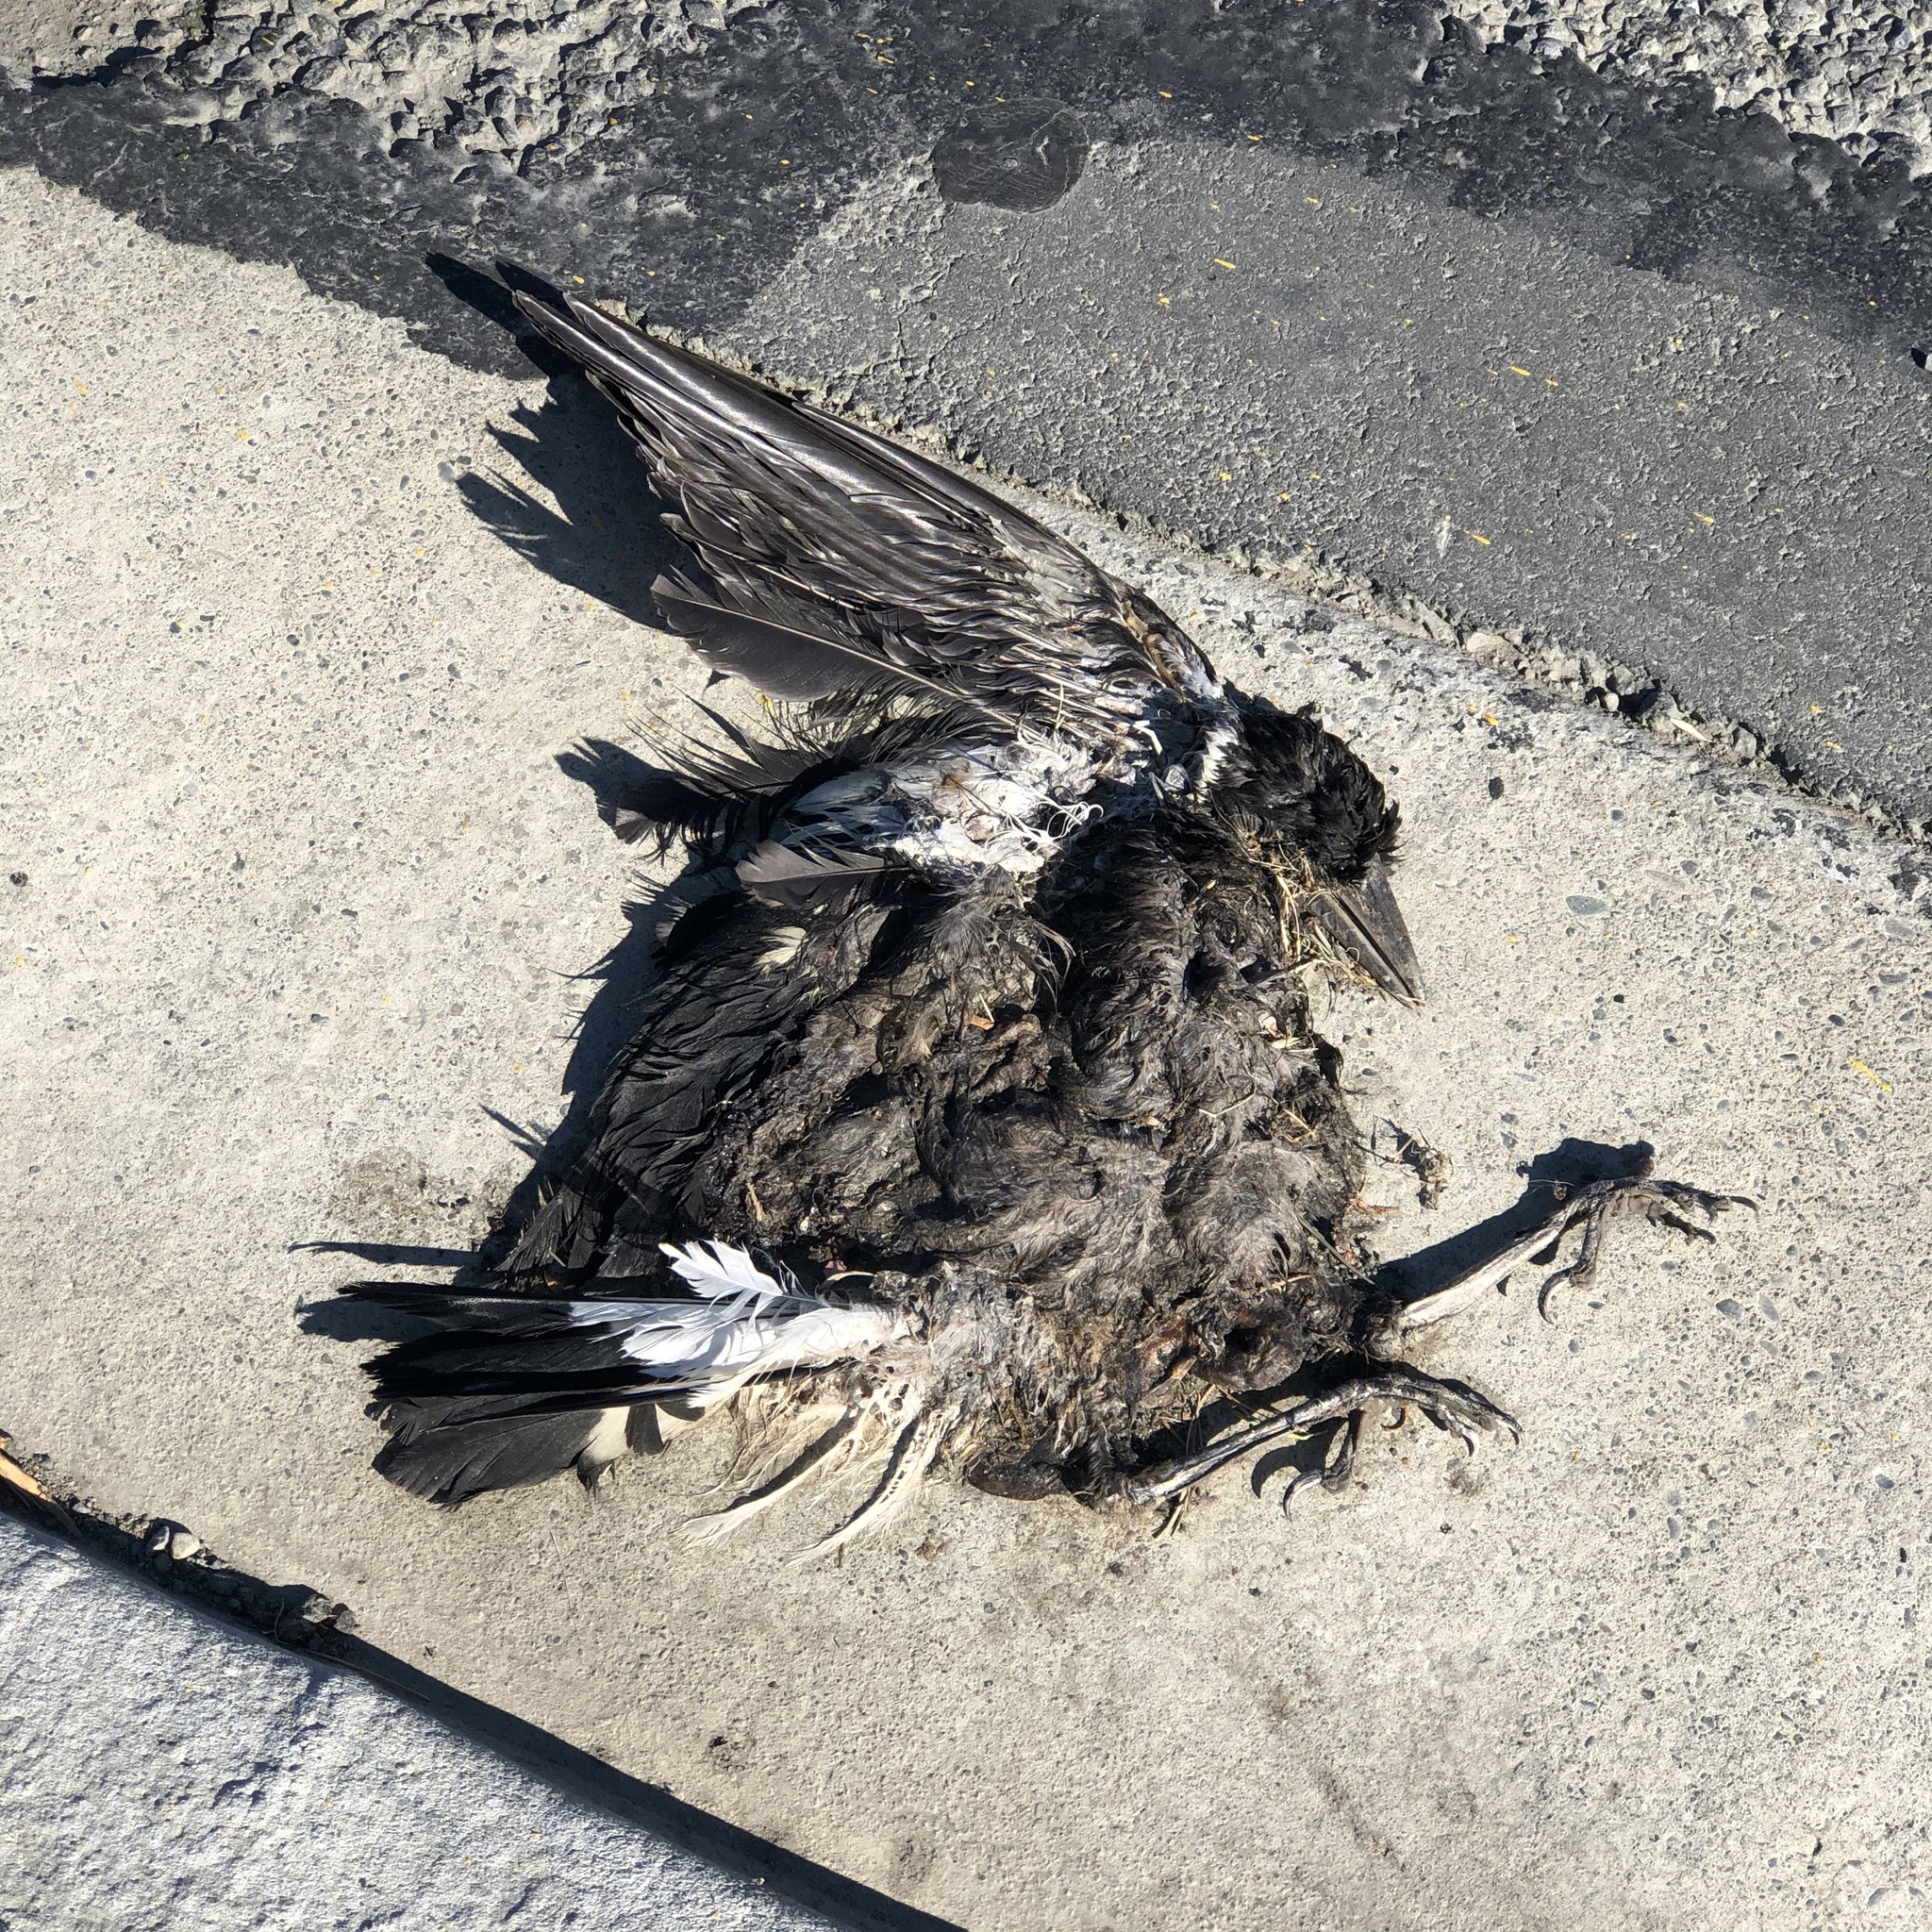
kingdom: Animalia
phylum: Chordata
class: Aves
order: Passeriformes
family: Cracticidae
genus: Gymnorhina
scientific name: Gymnorhina tibicen
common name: Australian magpie
